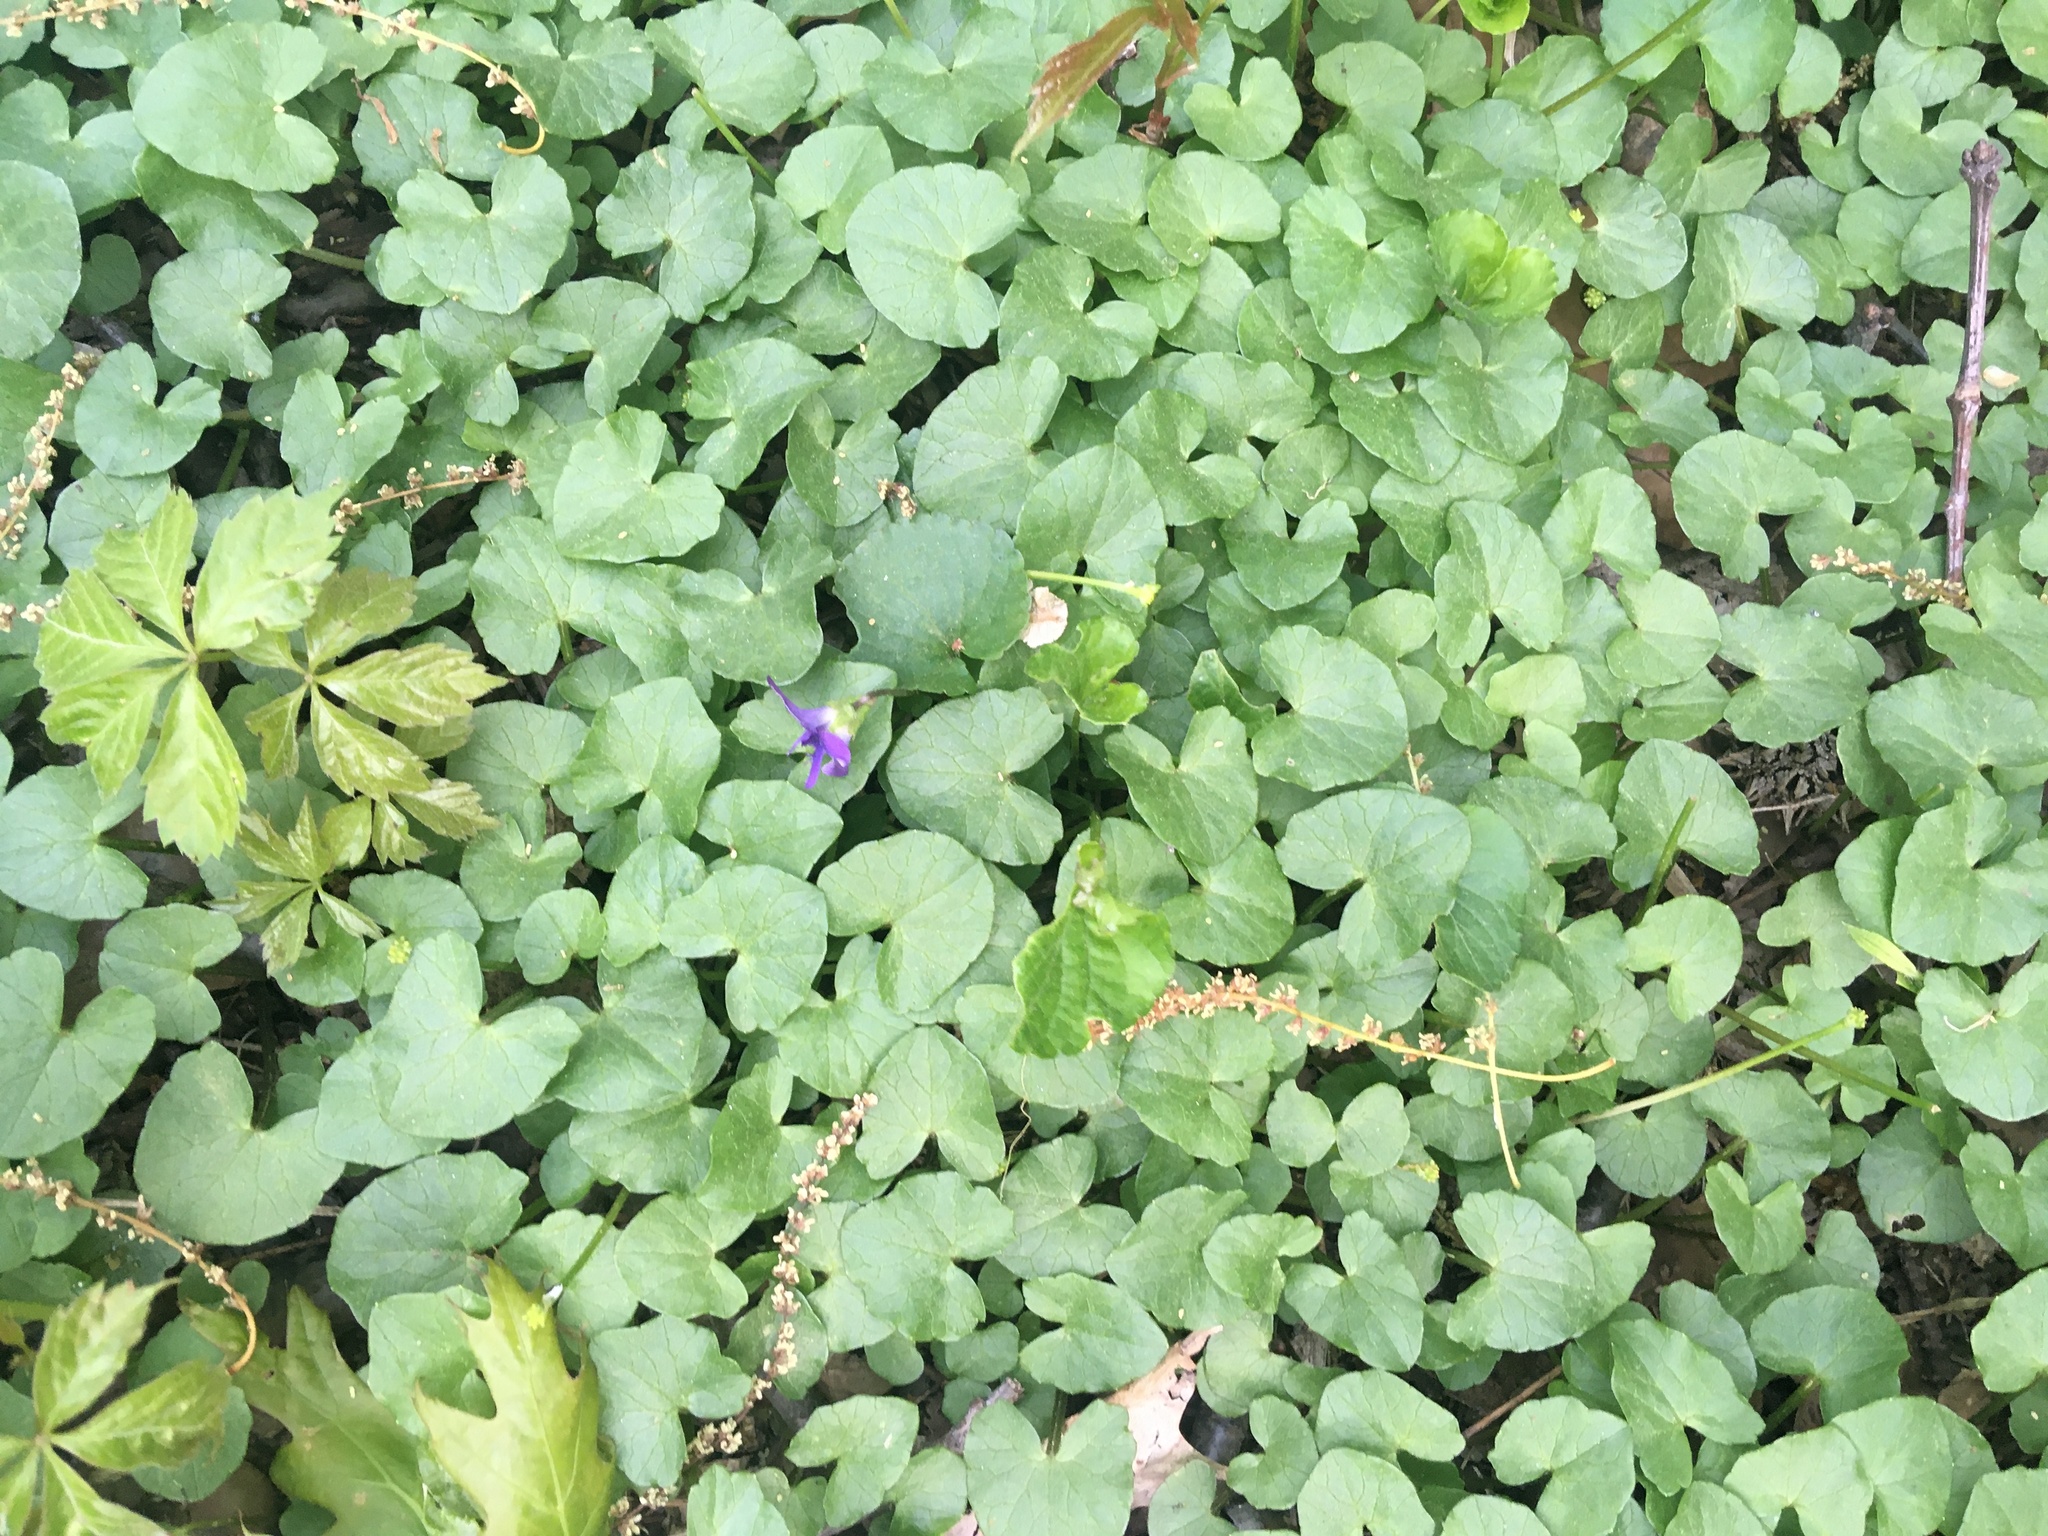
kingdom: Plantae
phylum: Tracheophyta
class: Magnoliopsida
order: Ranunculales
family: Ranunculaceae
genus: Ficaria
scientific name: Ficaria verna
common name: Lesser celandine
